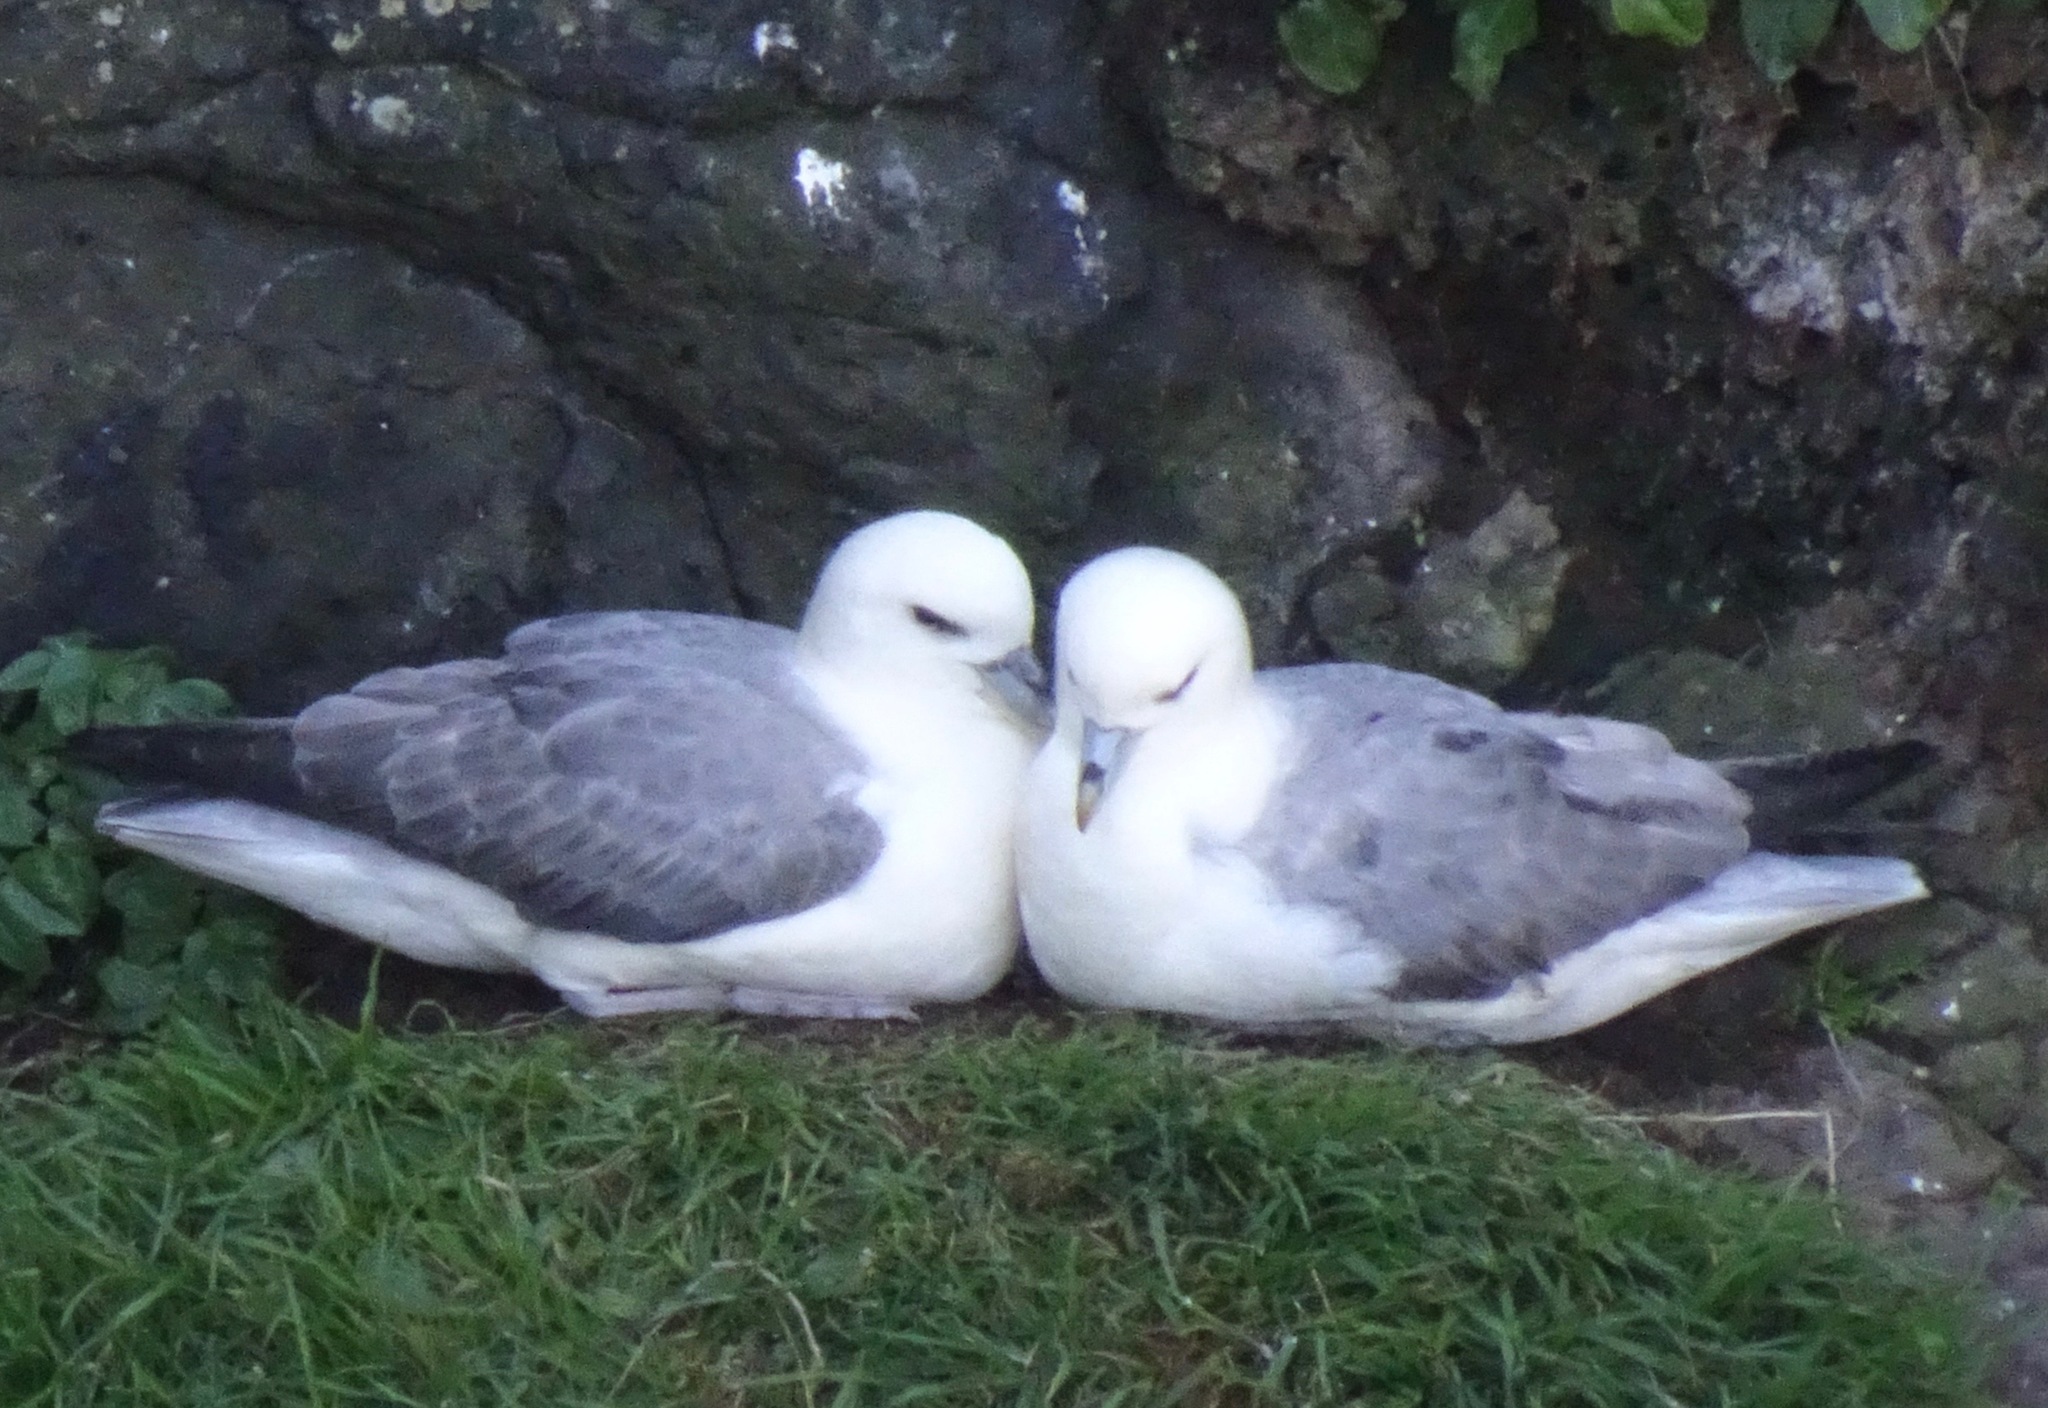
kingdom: Animalia
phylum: Chordata
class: Aves
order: Procellariiformes
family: Procellariidae
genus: Fulmarus
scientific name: Fulmarus glacialis
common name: Northern fulmar
